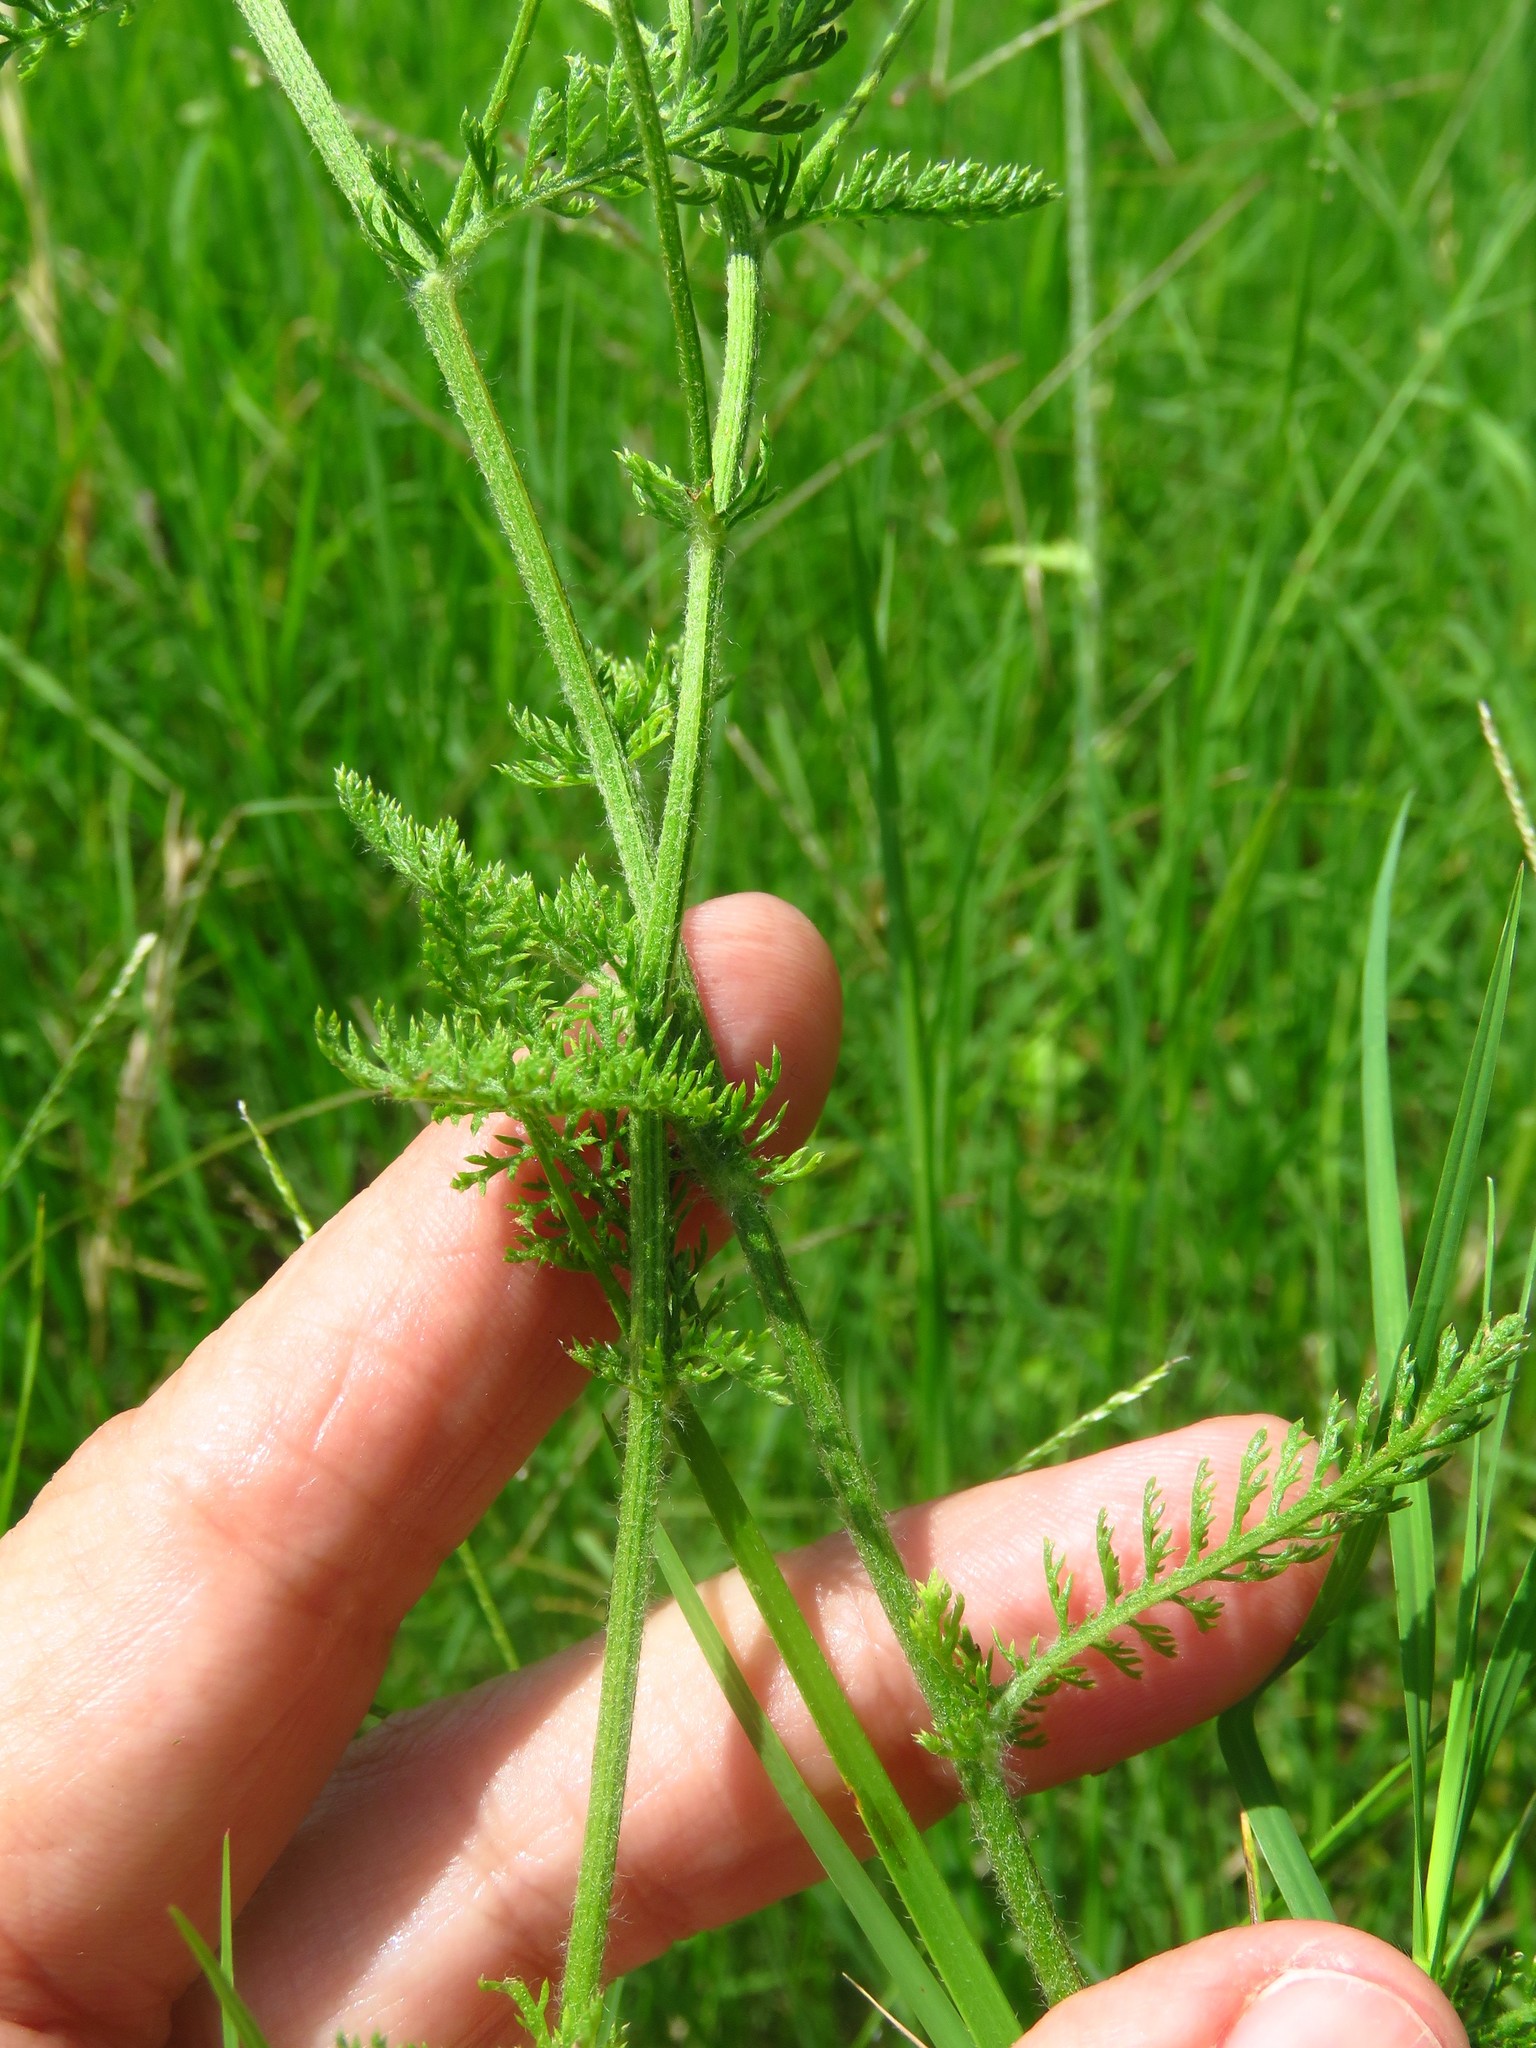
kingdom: Plantae
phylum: Tracheophyta
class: Magnoliopsida
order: Asterales
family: Asteraceae
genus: Achillea
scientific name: Achillea millefolium
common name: Yarrow
